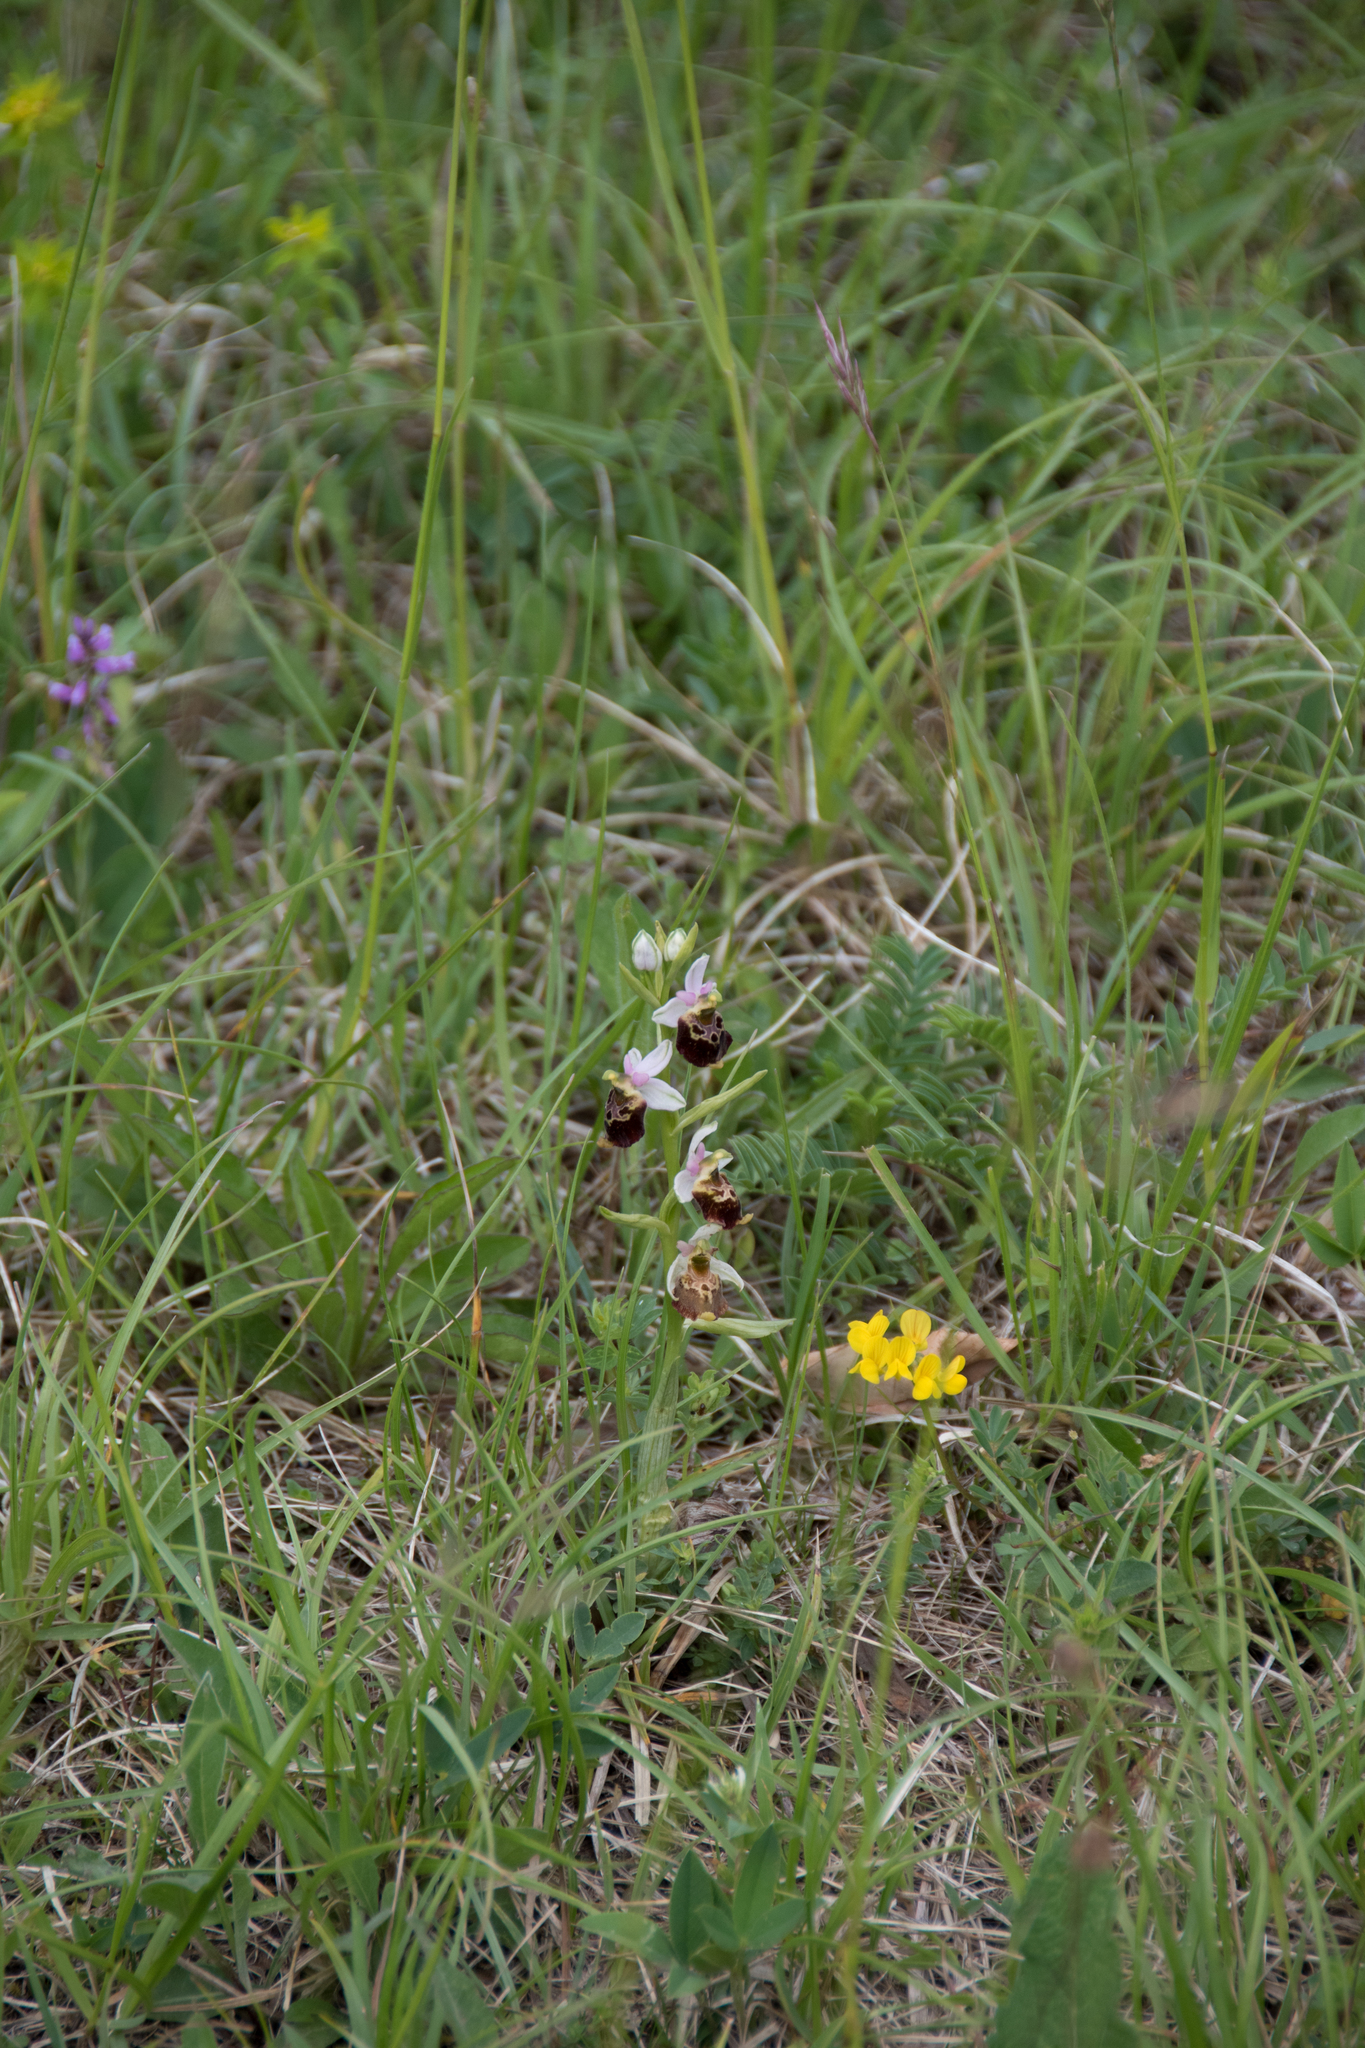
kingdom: Plantae
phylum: Tracheophyta
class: Liliopsida
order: Asparagales
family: Orchidaceae
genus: Ophrys
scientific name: Ophrys holosericea
